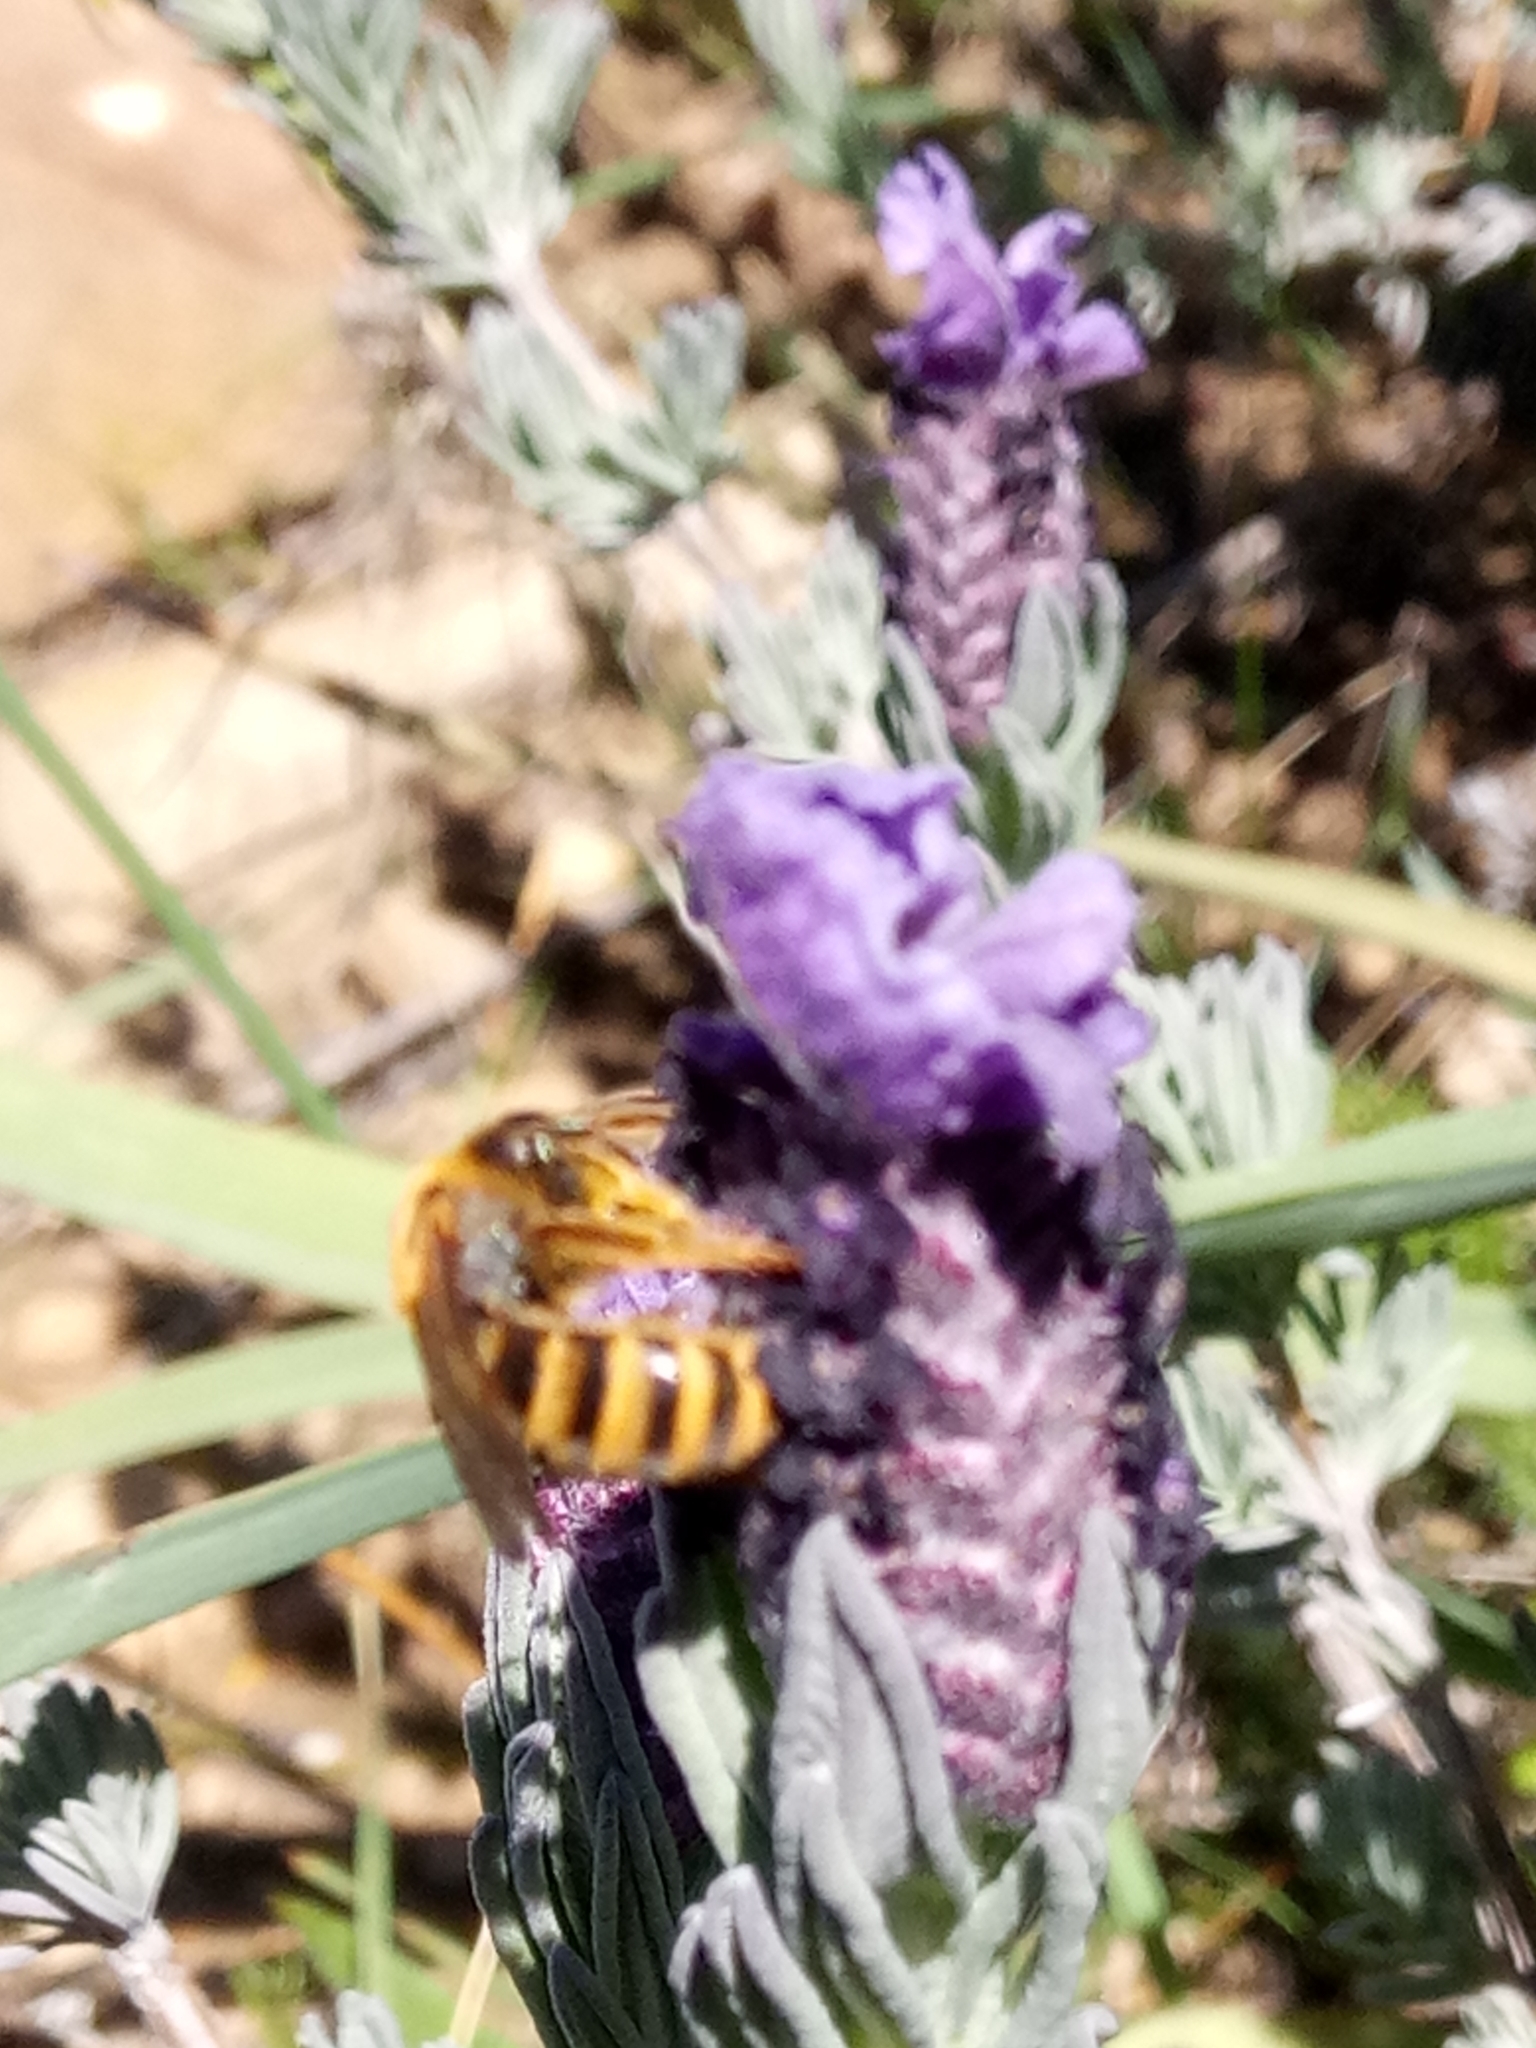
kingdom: Animalia
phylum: Arthropoda
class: Insecta
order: Hymenoptera
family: Halictidae
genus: Halictus
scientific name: Halictus scabiosae
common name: Great banded furrow bee
